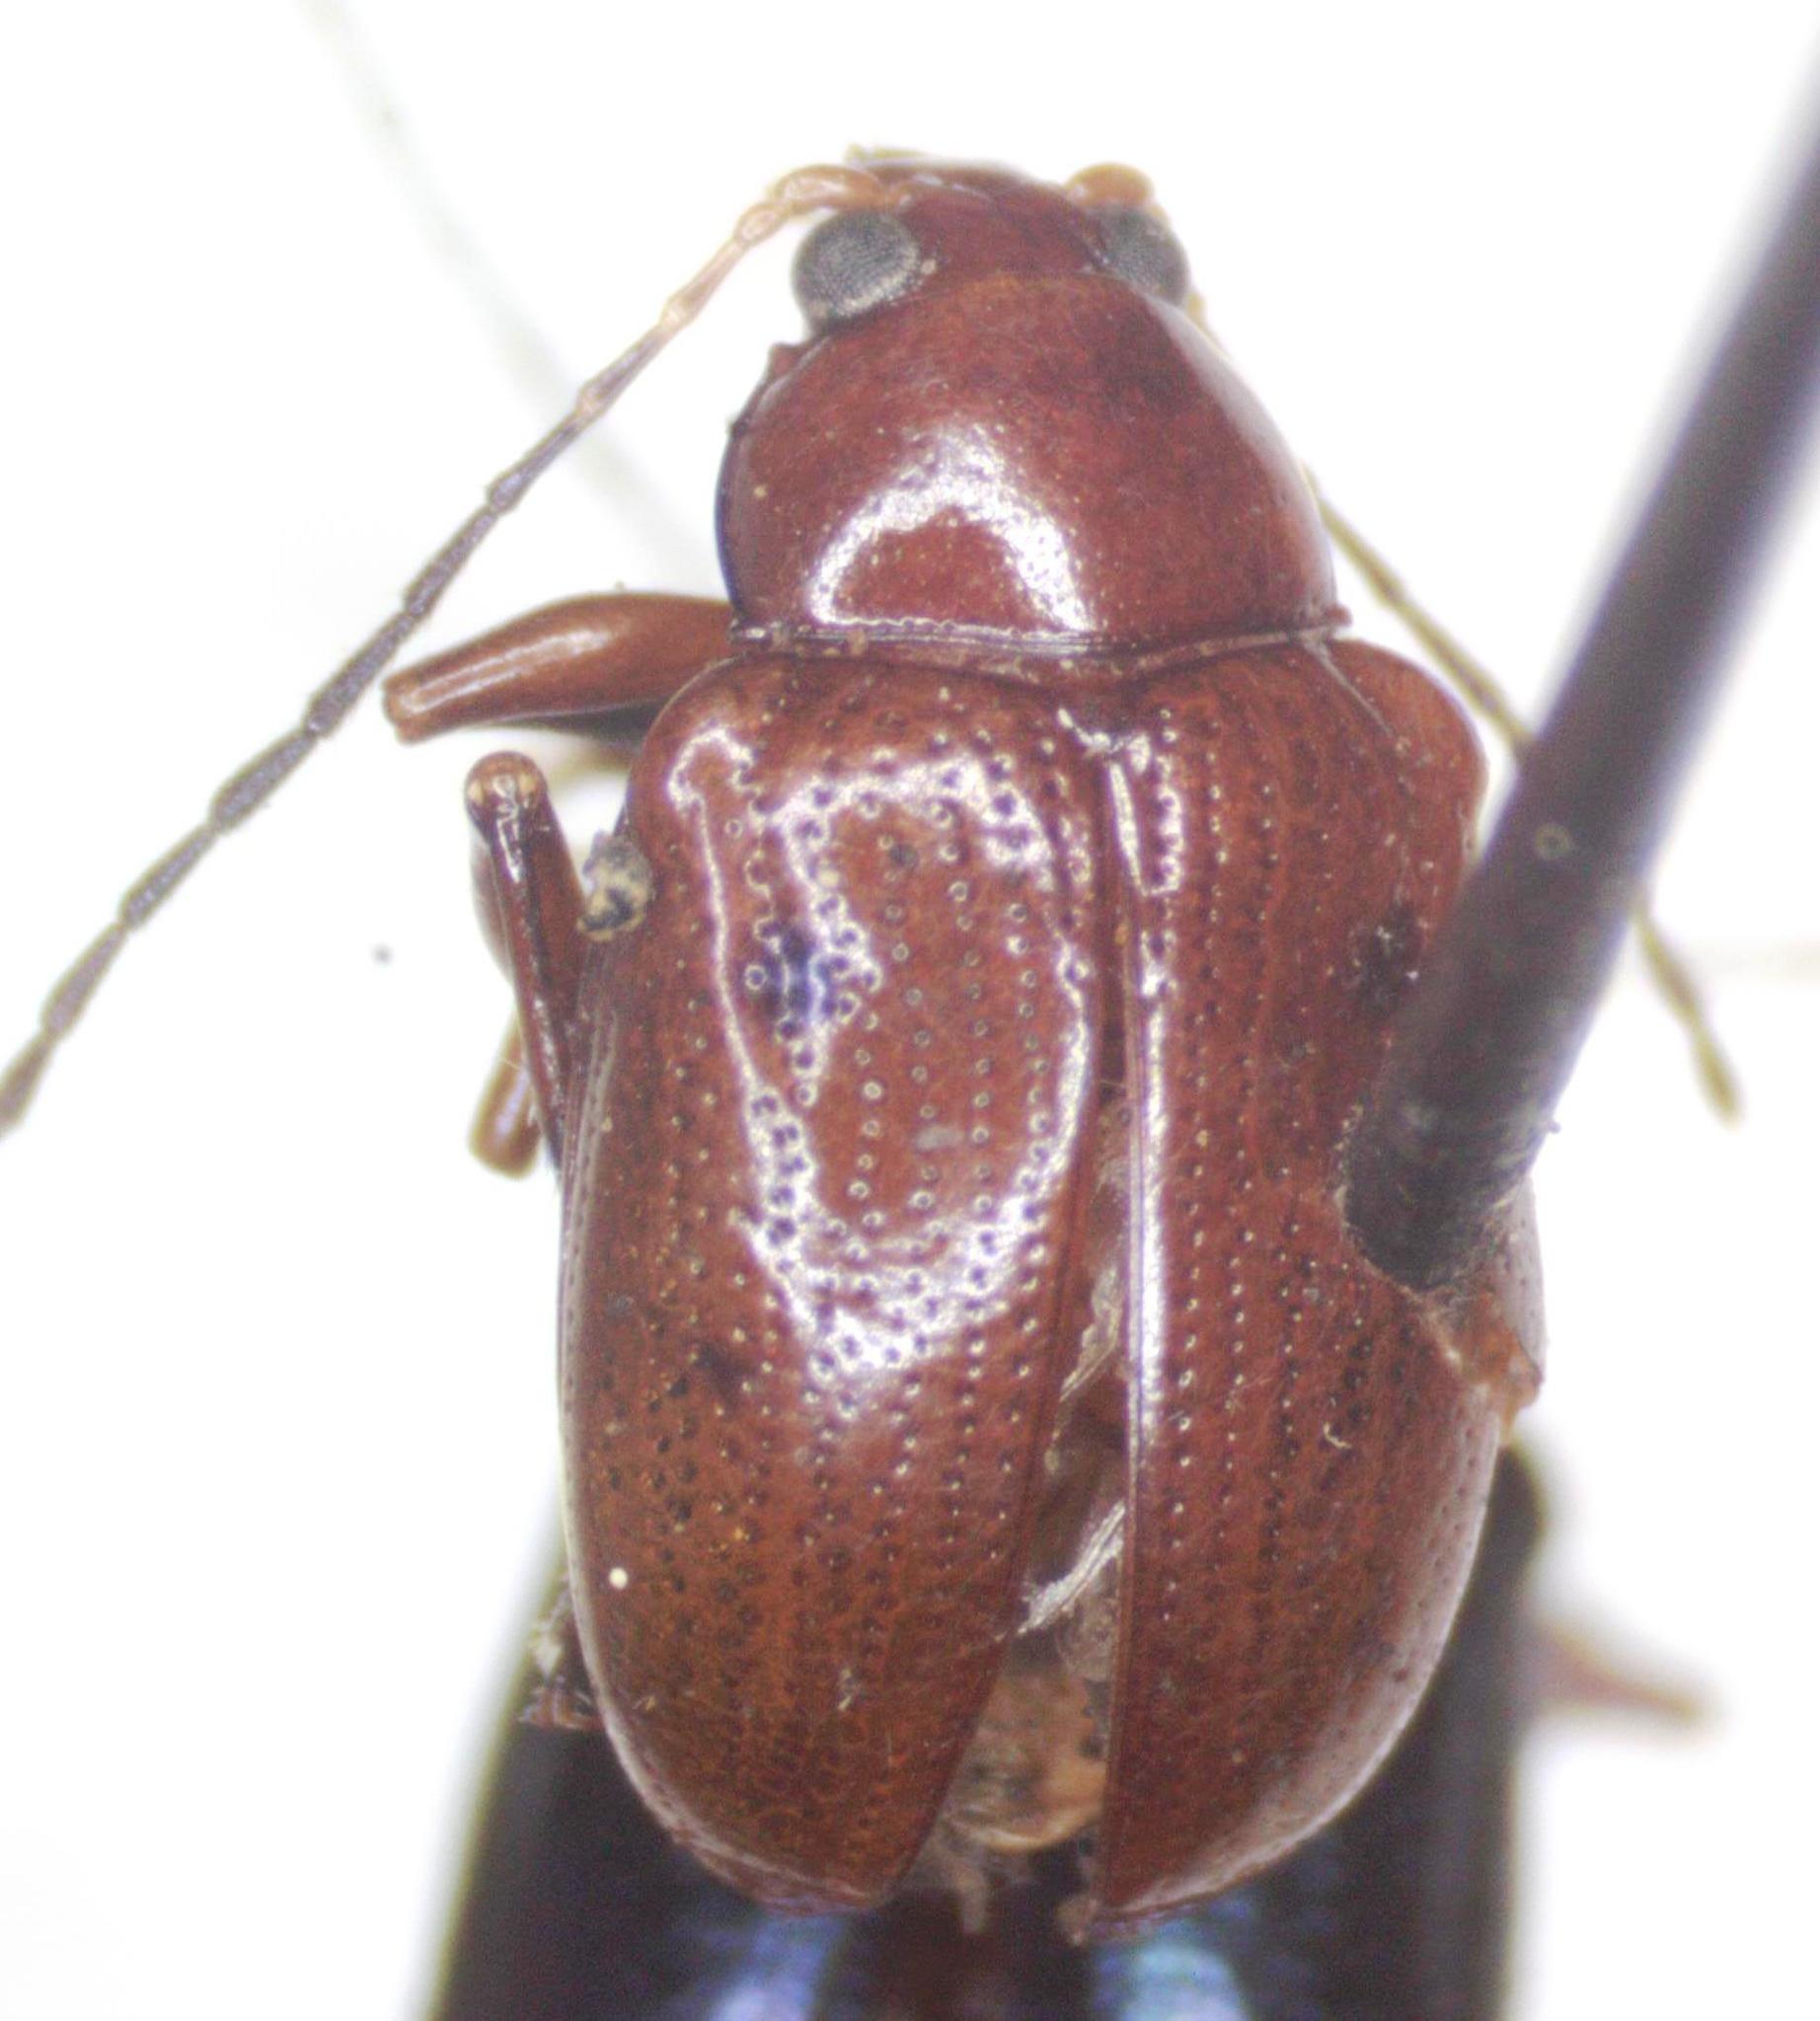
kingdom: Animalia
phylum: Arthropoda
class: Insecta
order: Coleoptera
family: Chrysomelidae
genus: Chalcophana
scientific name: Chalcophana
